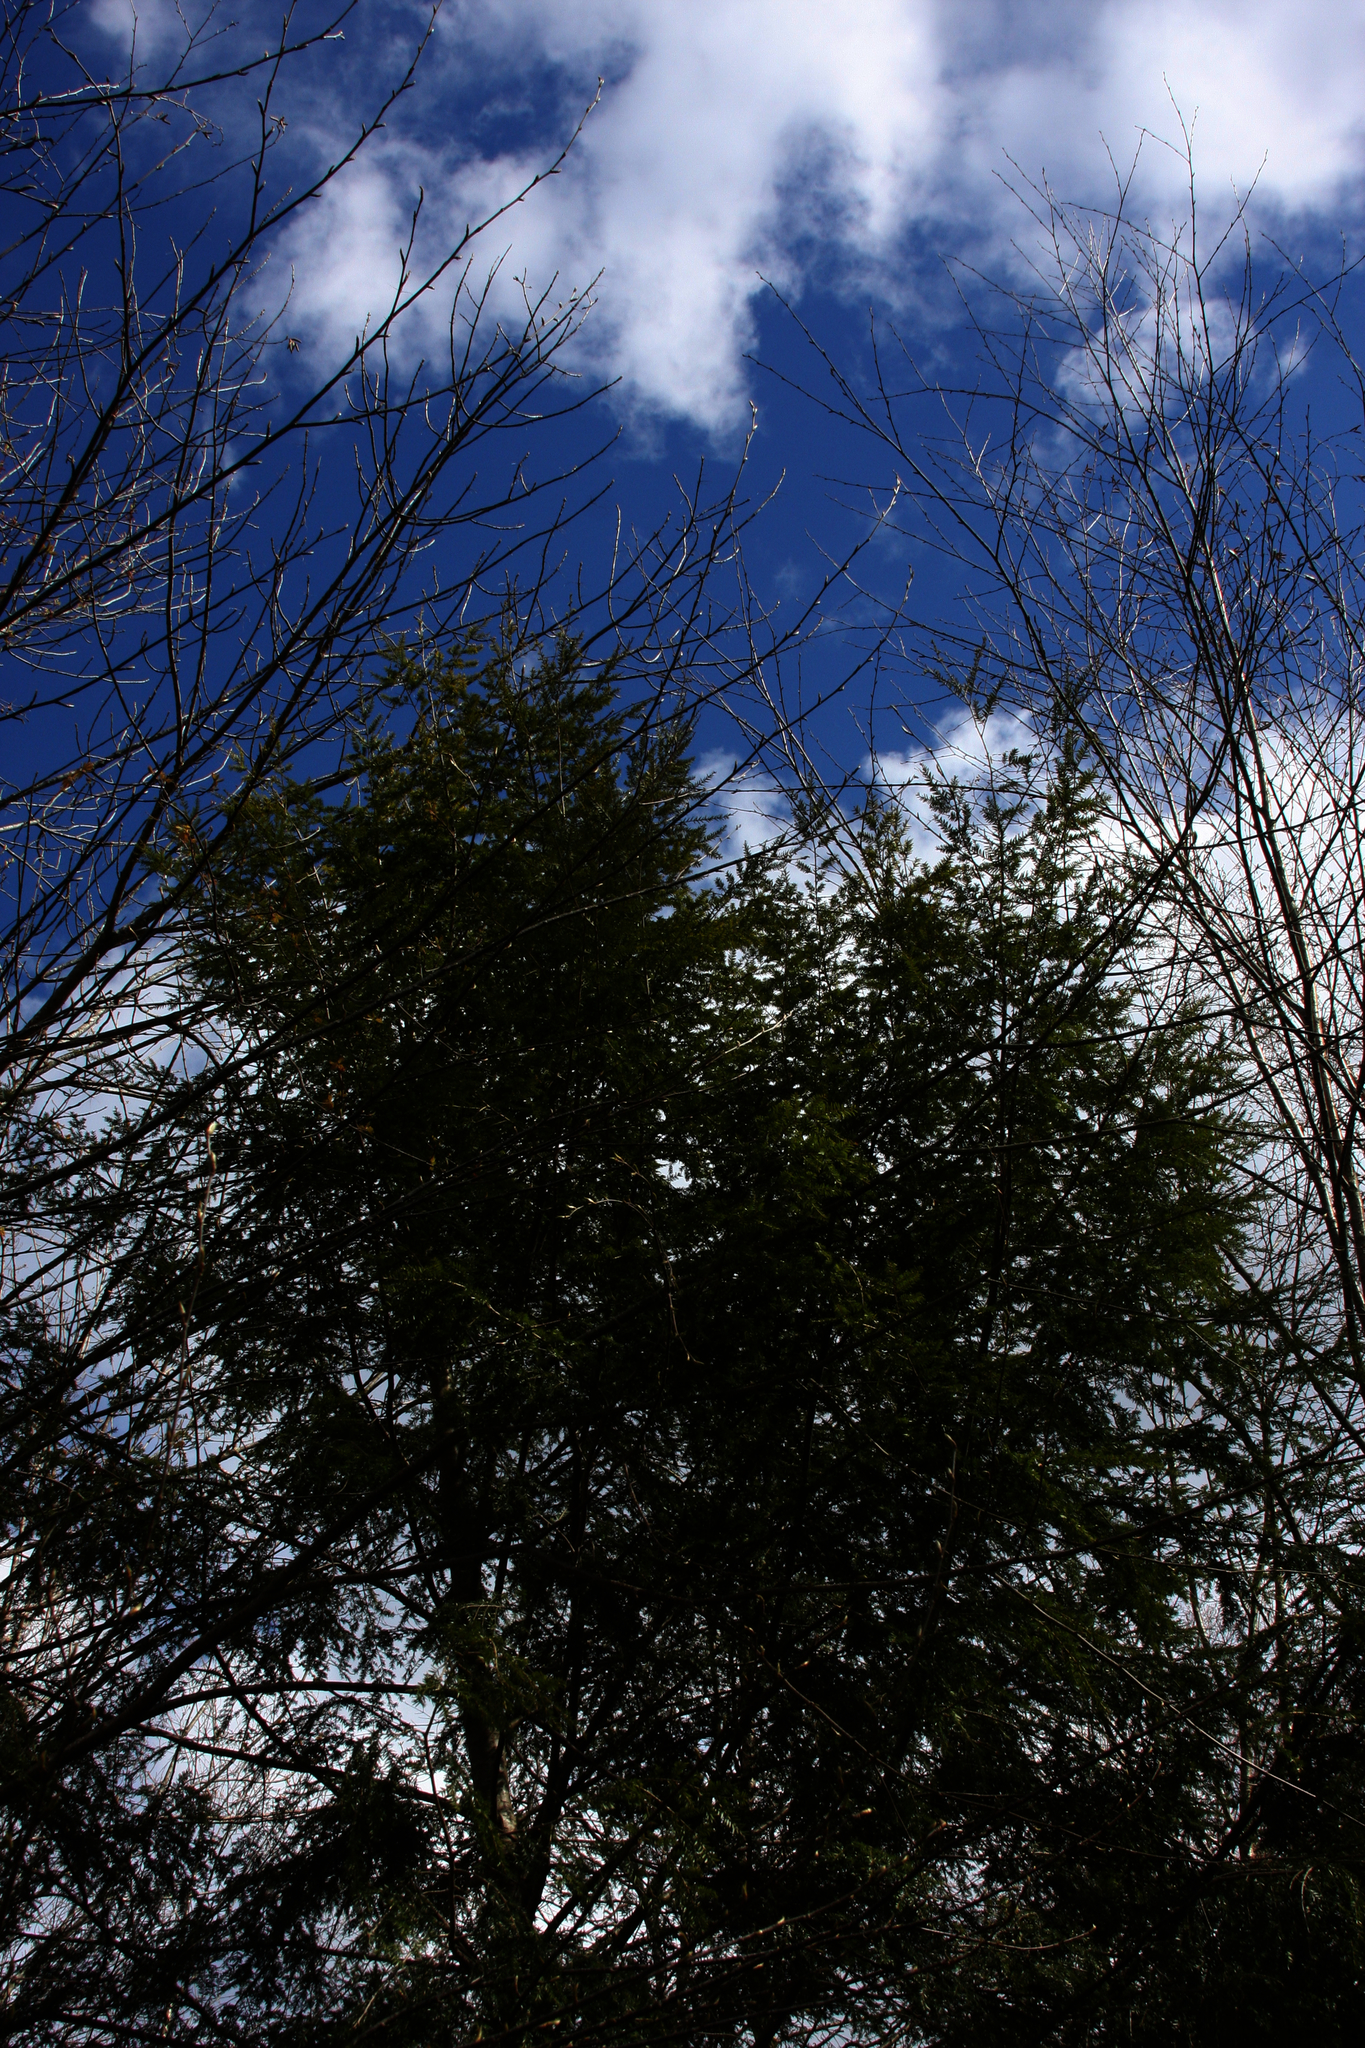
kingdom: Plantae
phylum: Tracheophyta
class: Pinopsida
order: Pinales
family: Pinaceae
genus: Tsuga
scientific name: Tsuga canadensis
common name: Eastern hemlock
